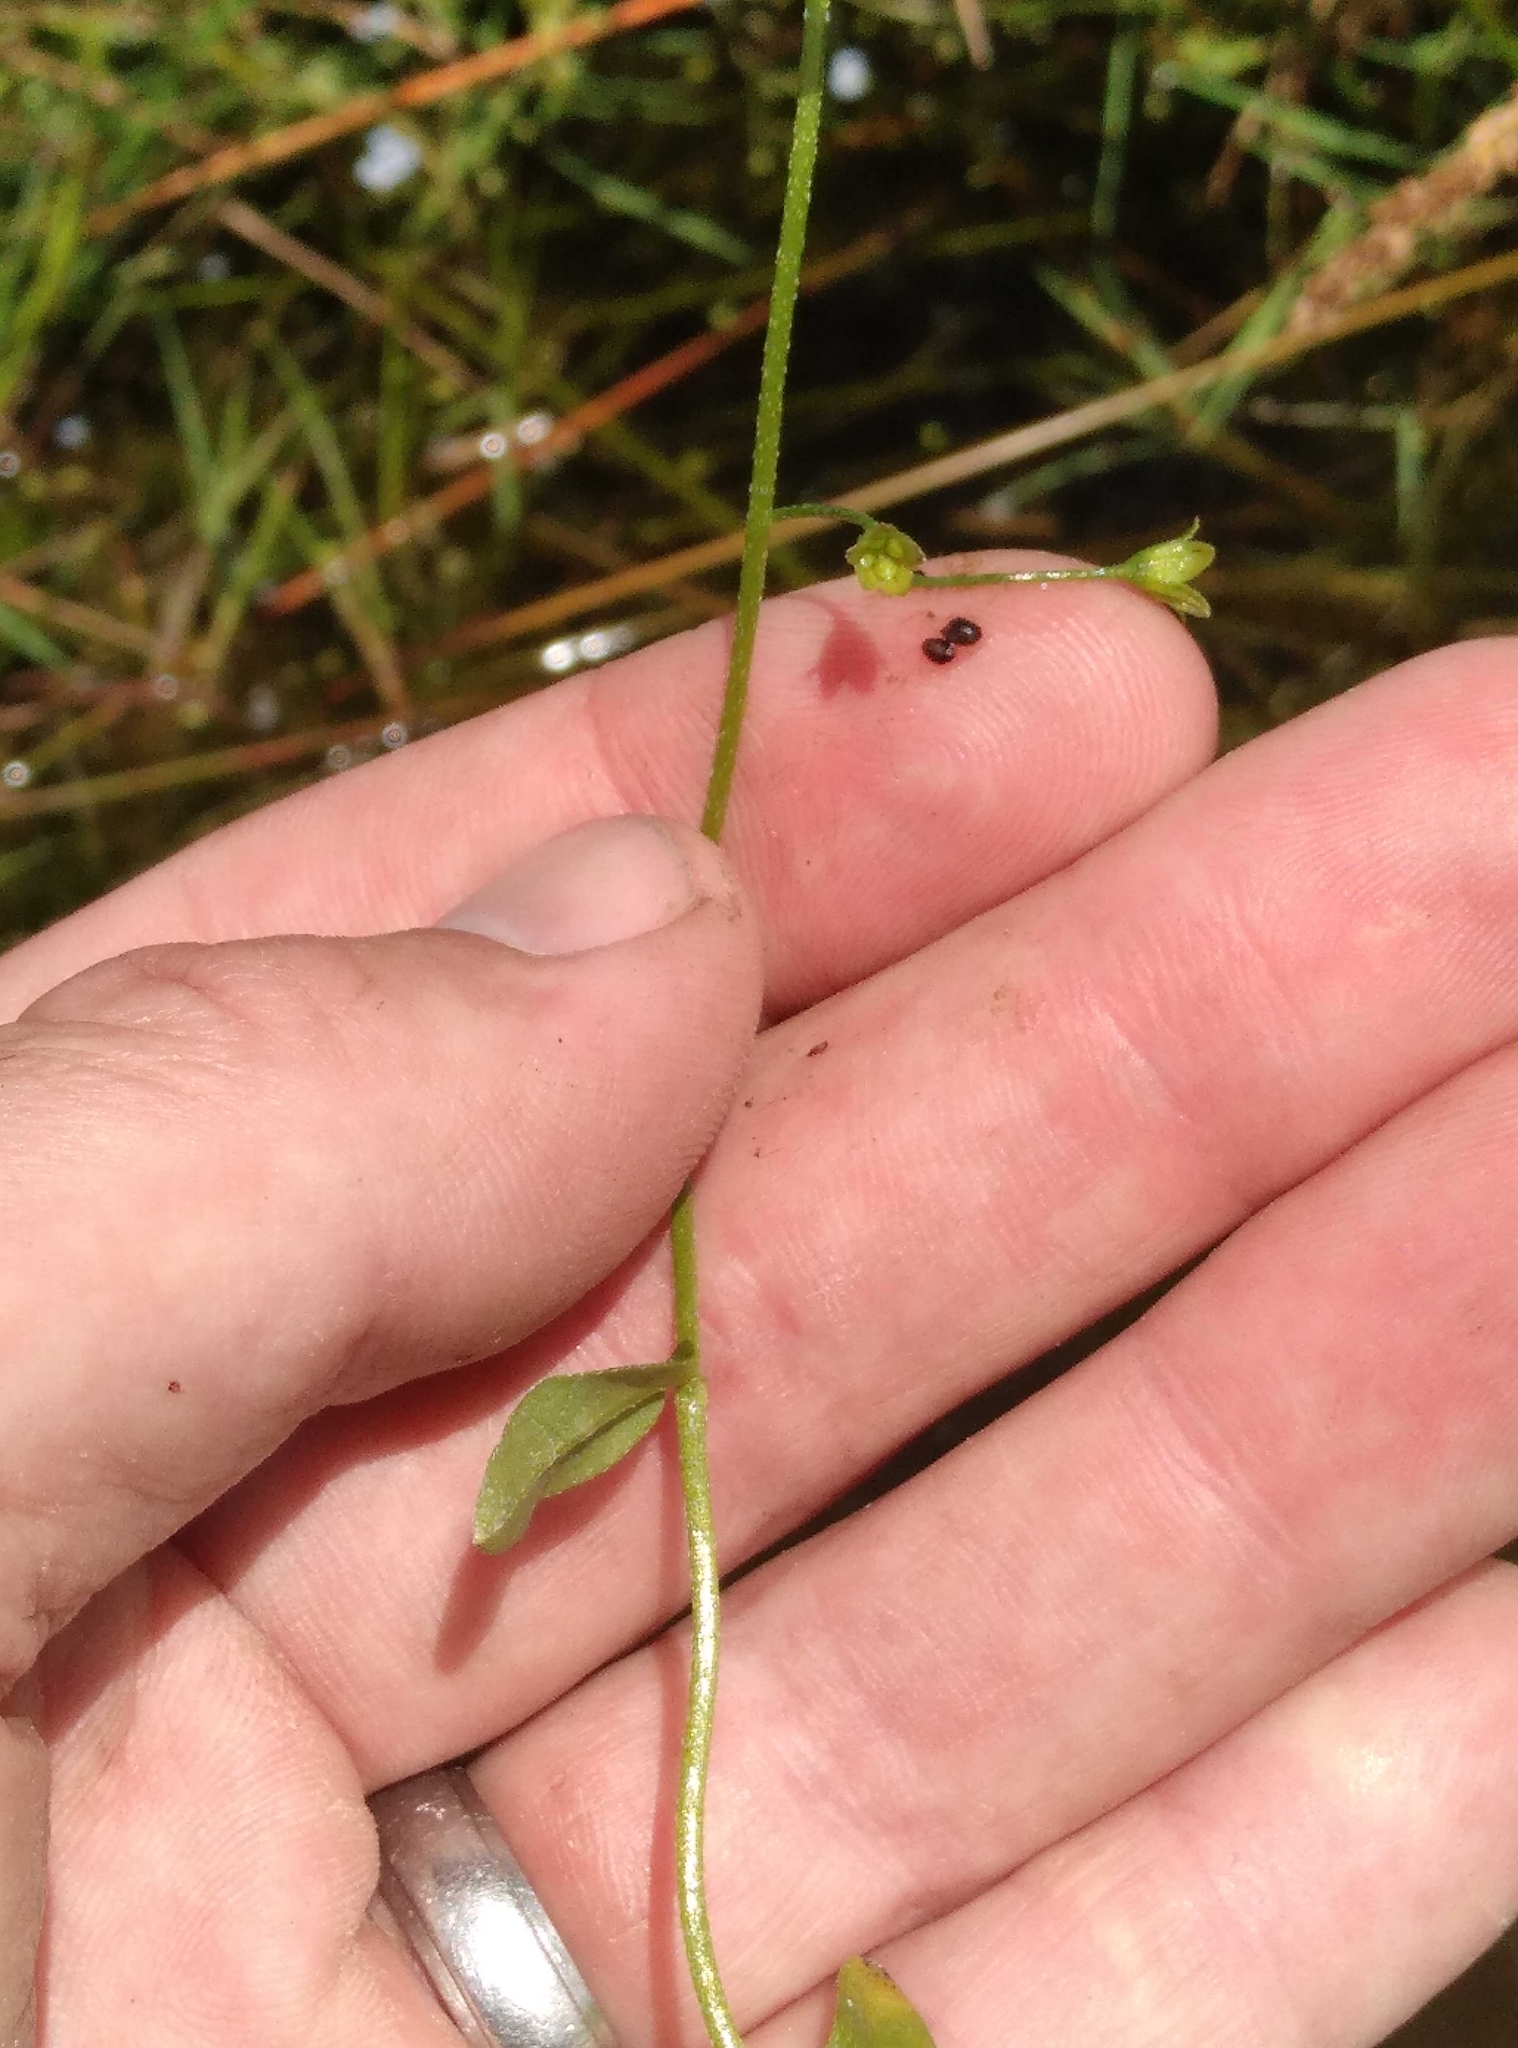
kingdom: Plantae
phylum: Tracheophyta
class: Magnoliopsida
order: Boraginales
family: Boraginaceae
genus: Myosotis
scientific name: Myosotis laxa
